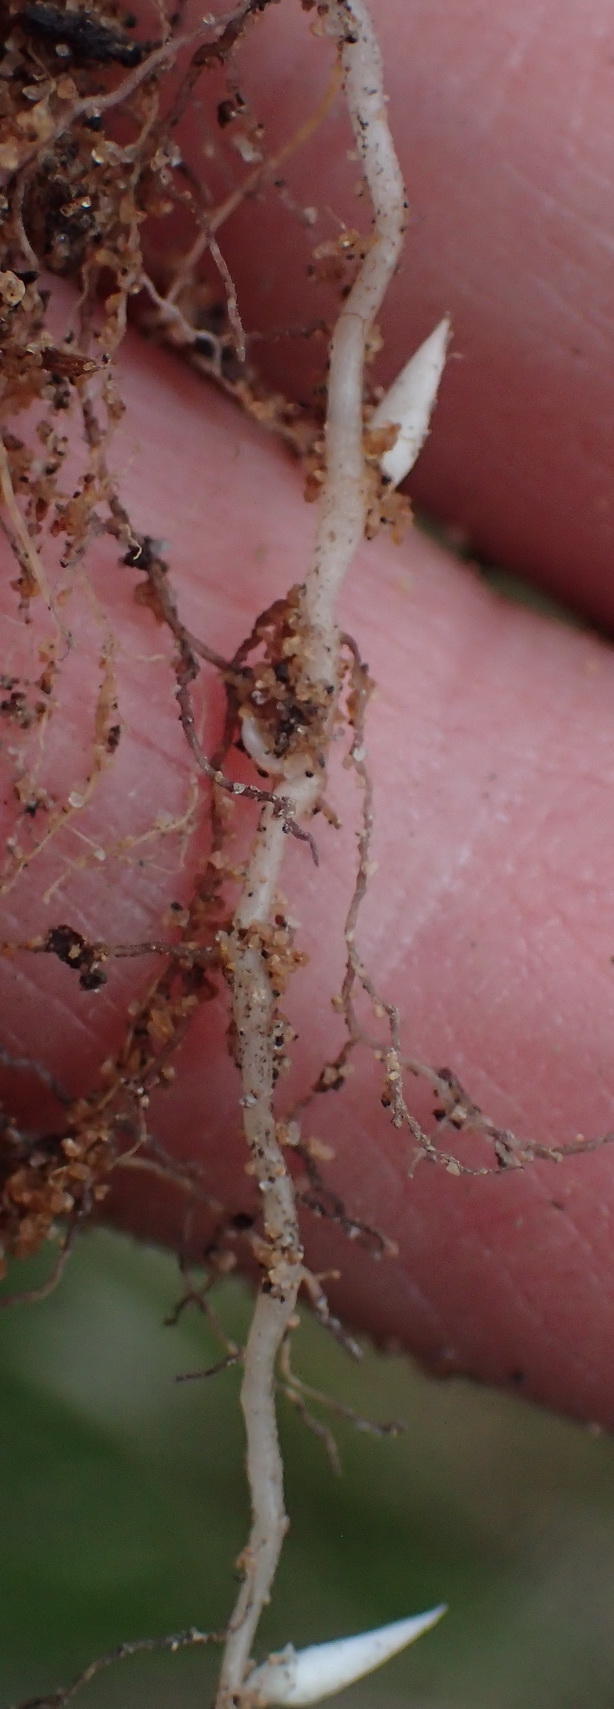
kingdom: Plantae
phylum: Tracheophyta
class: Magnoliopsida
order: Oxalidales
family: Oxalidaceae
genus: Oxalis
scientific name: Oxalis imbricata
